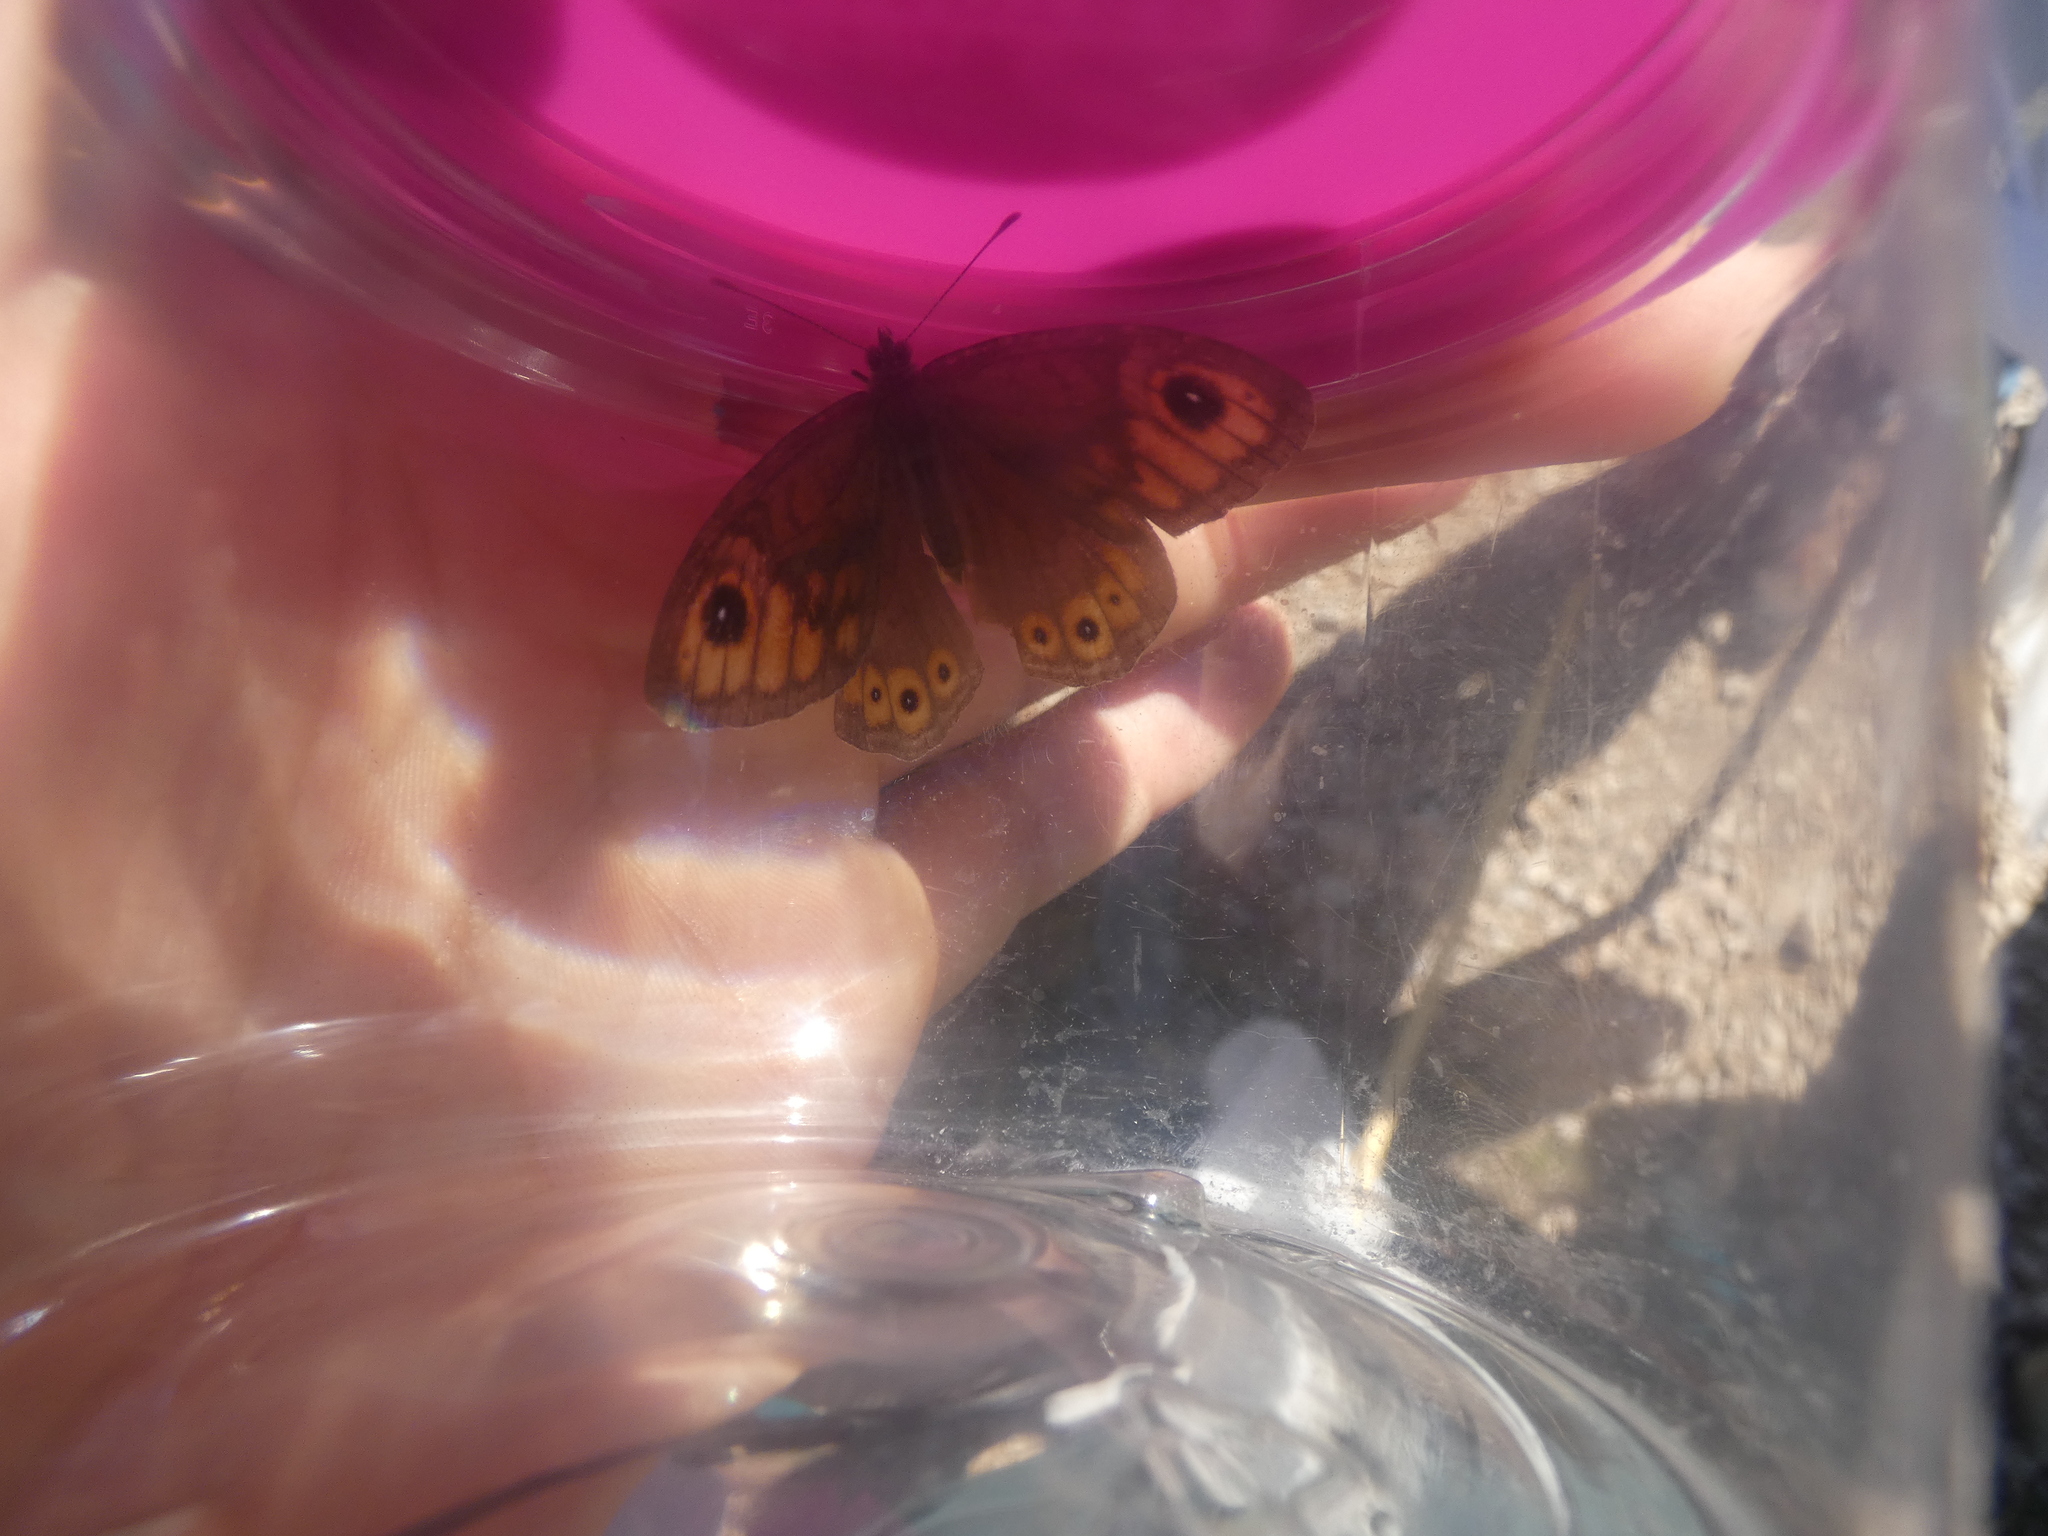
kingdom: Animalia
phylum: Arthropoda
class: Insecta
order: Lepidoptera
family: Nymphalidae
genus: Pararge
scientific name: Pararge Lasiommata maera
